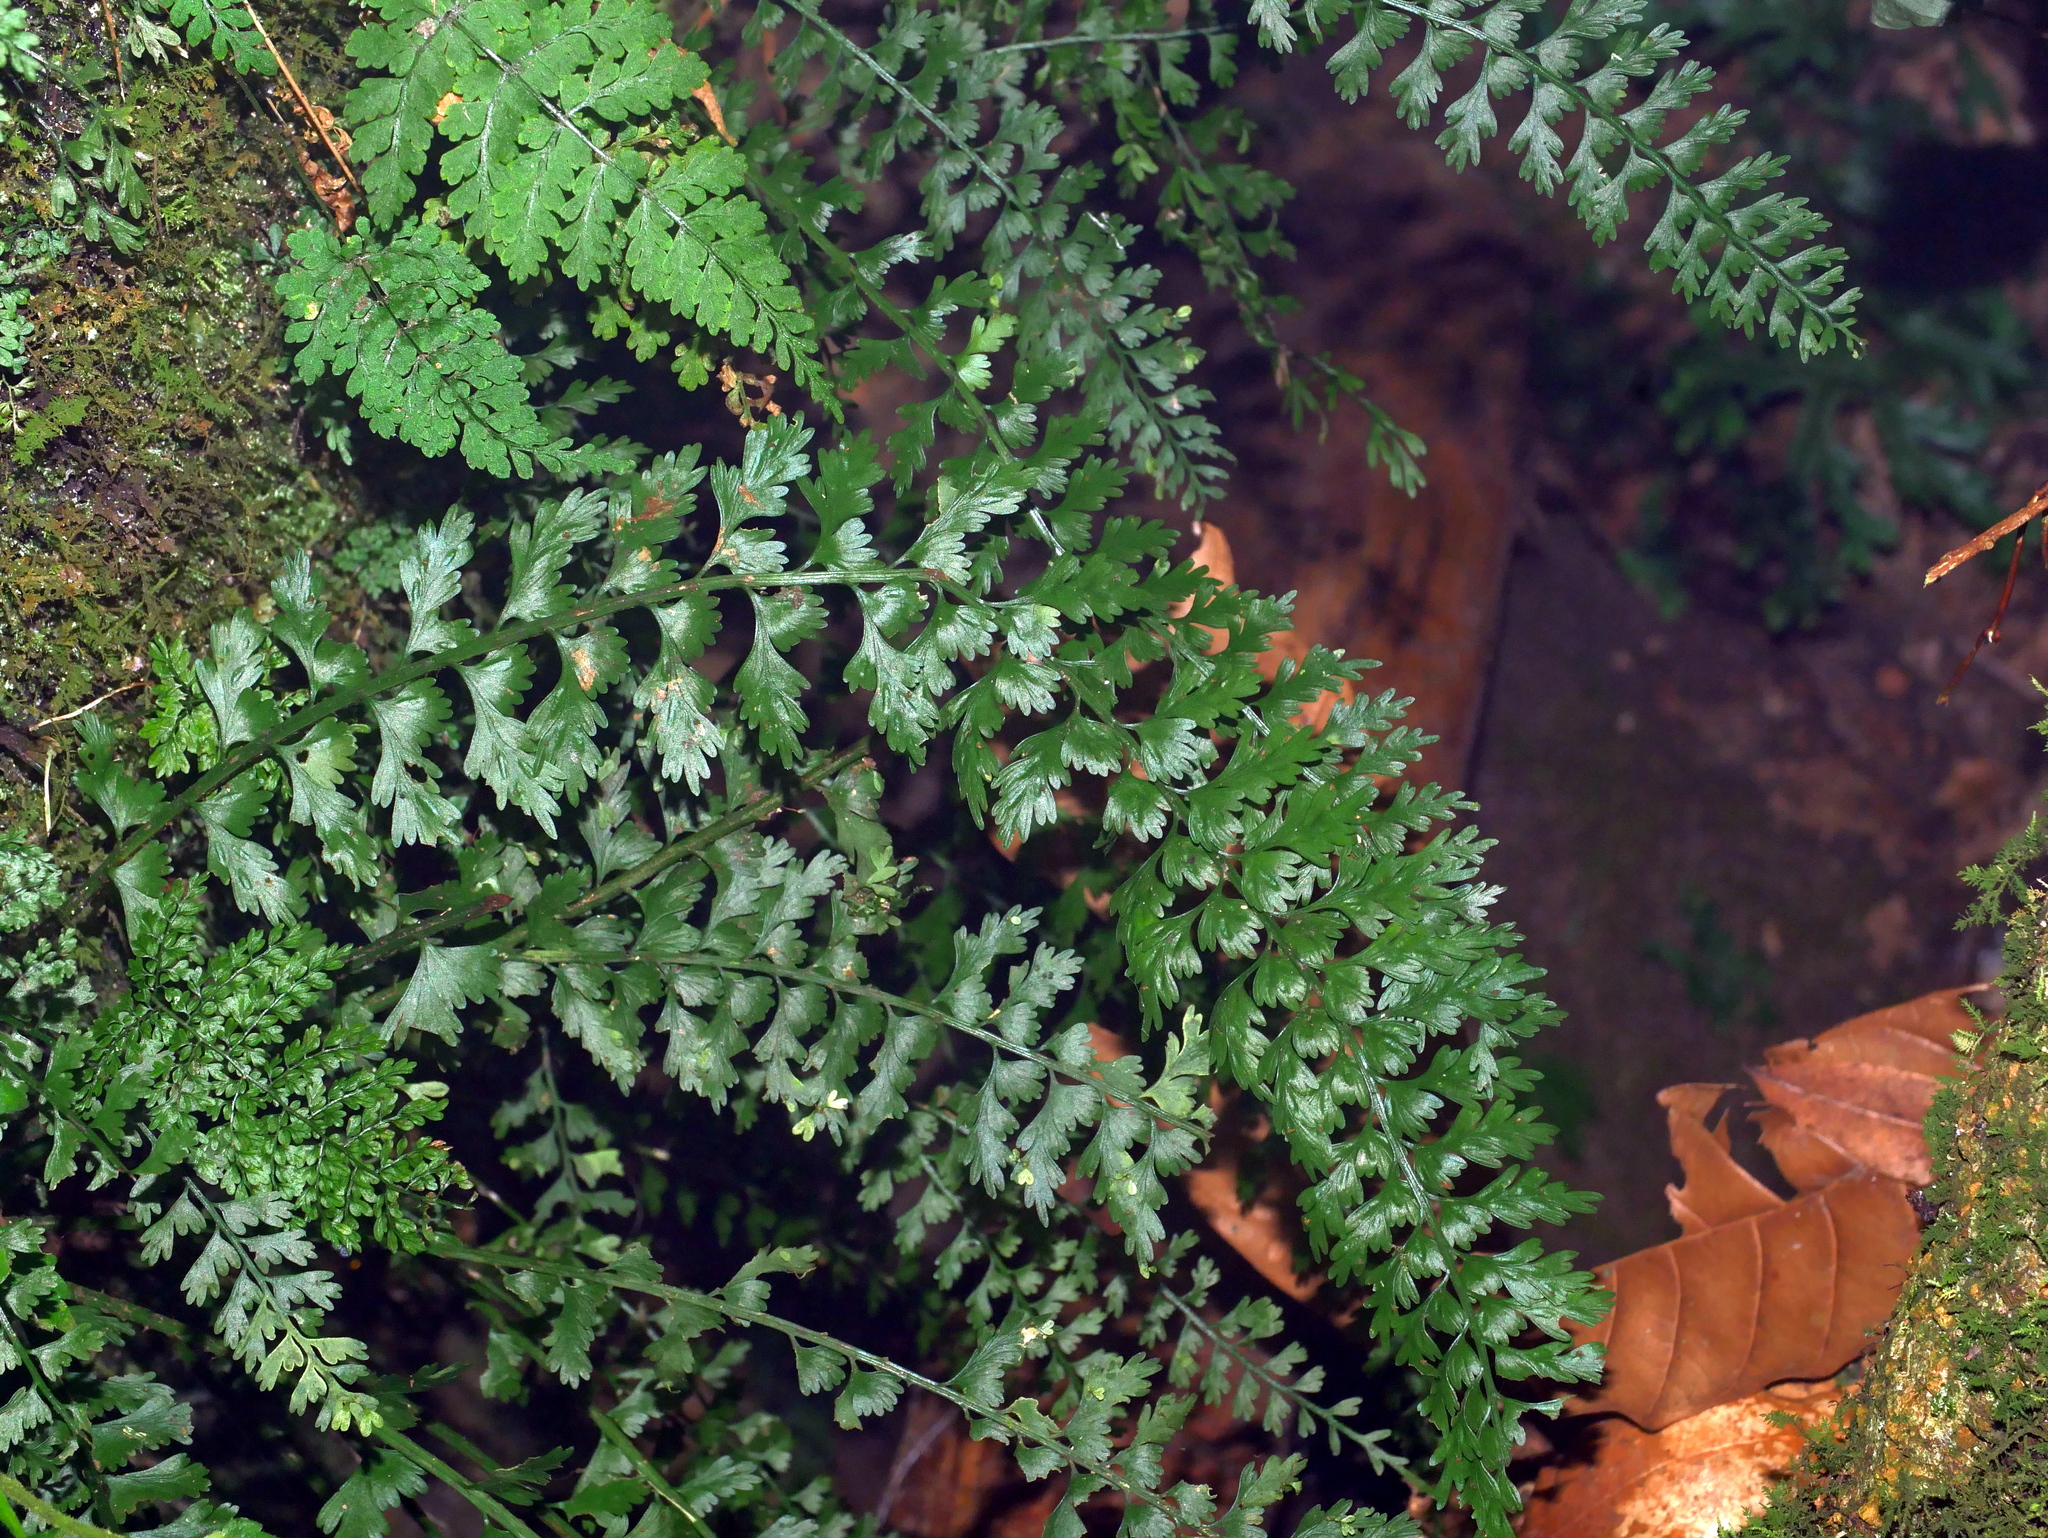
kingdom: Plantae
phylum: Tracheophyta
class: Polypodiopsida
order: Polypodiales
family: Aspleniaceae
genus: Asplenium
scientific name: Asplenium gueinzianum
